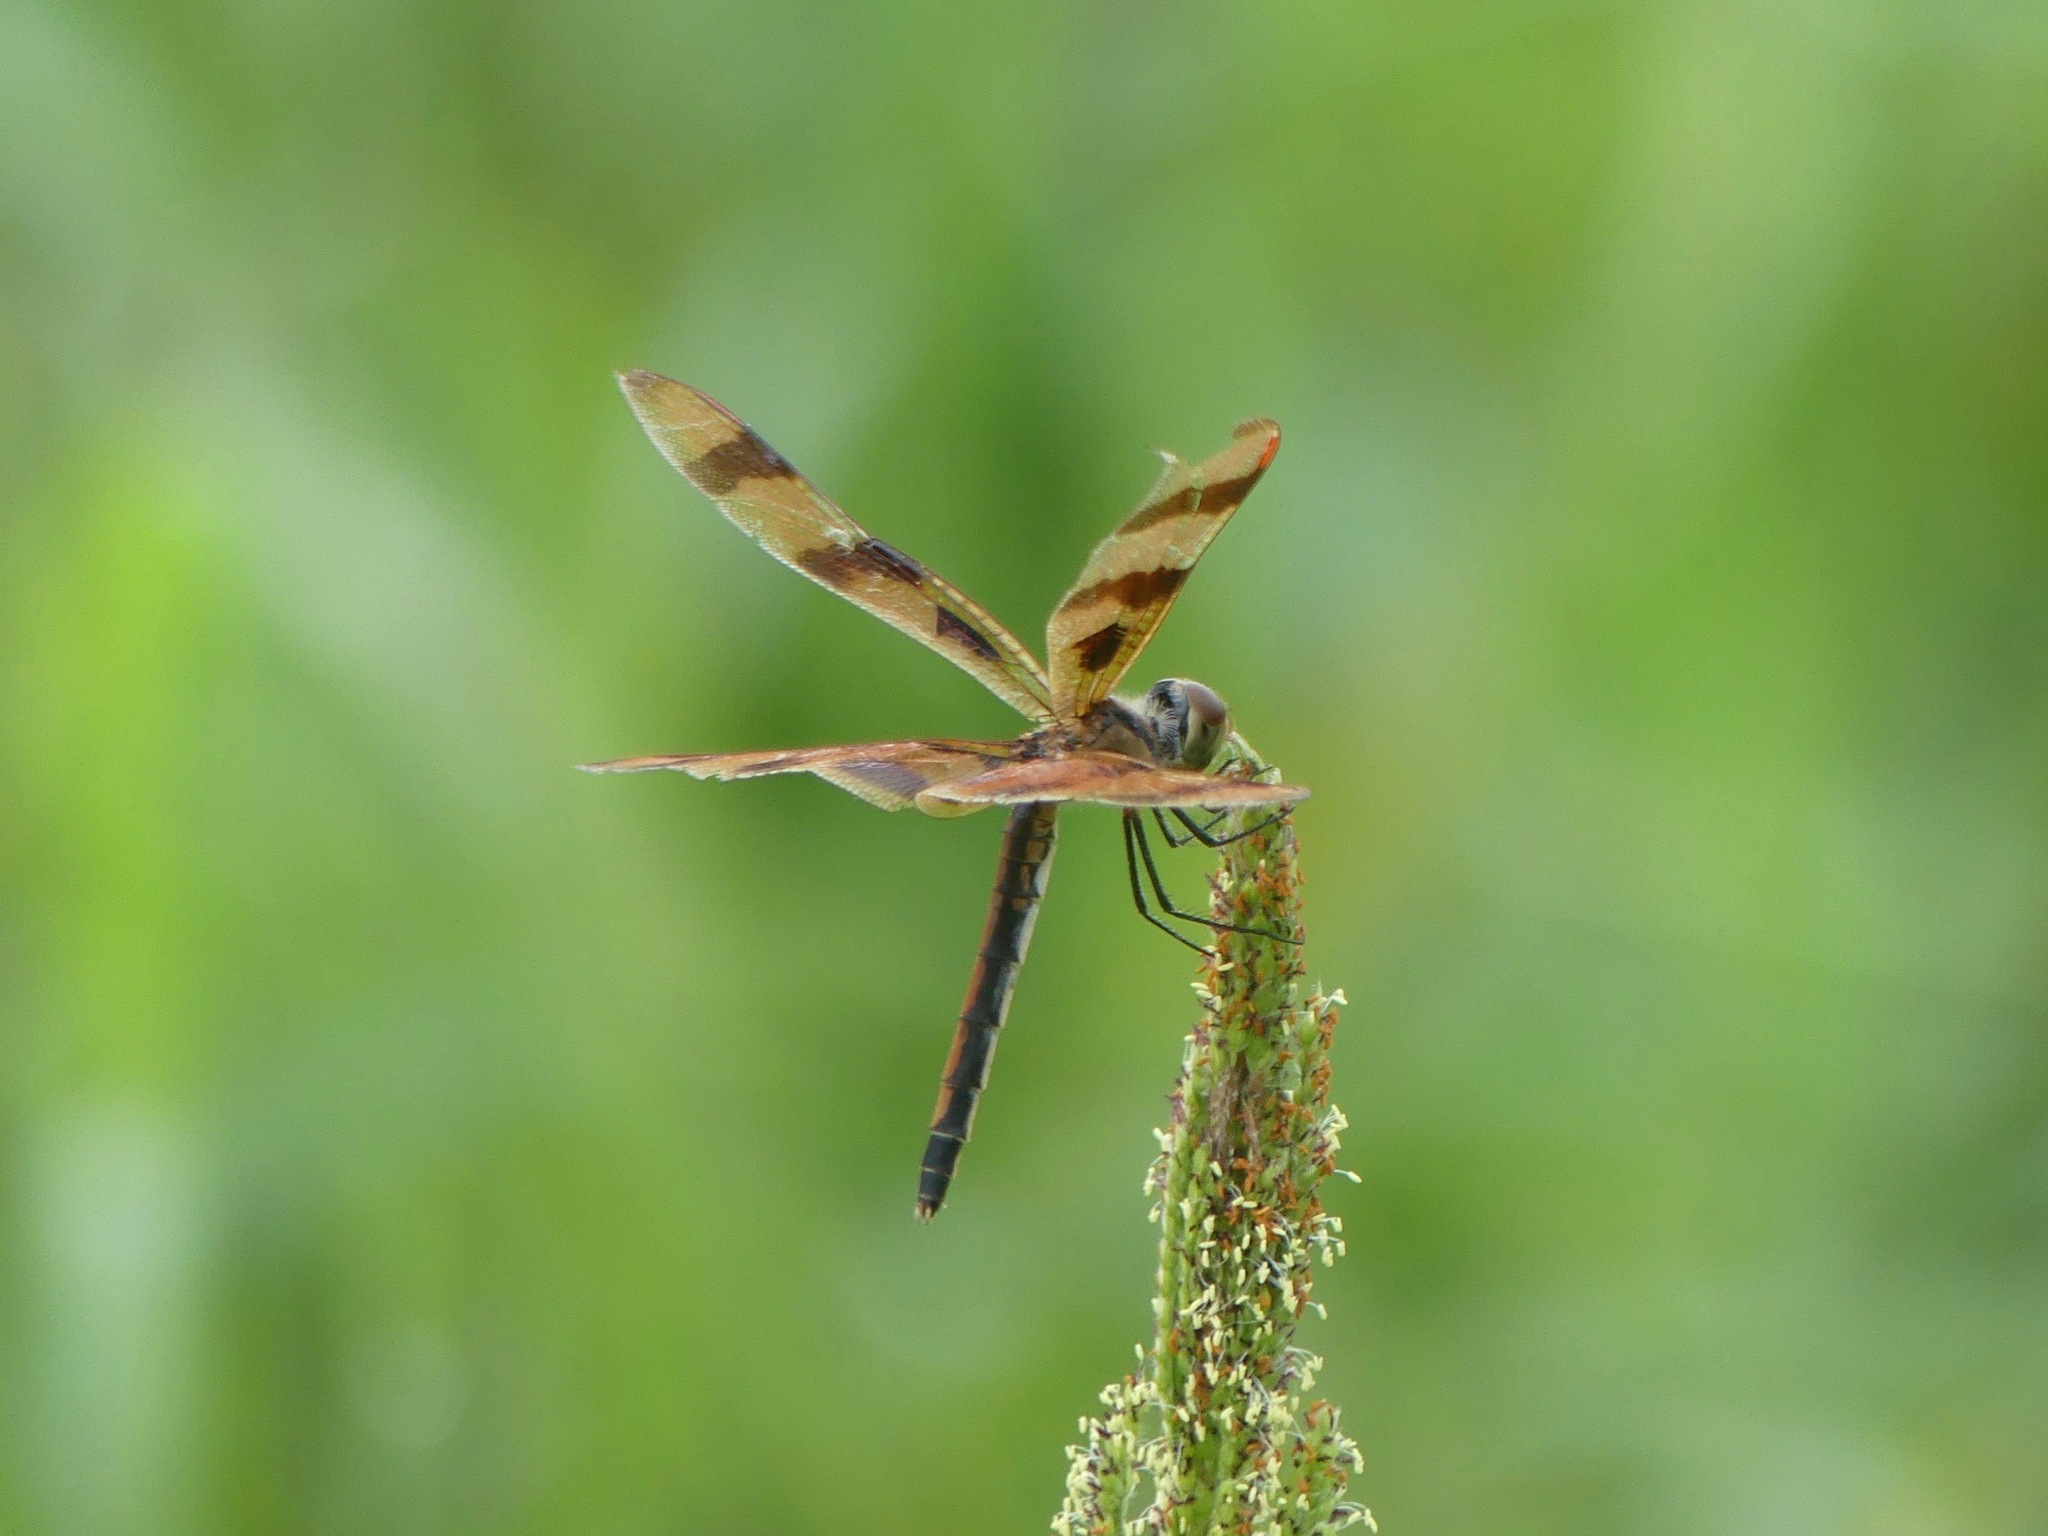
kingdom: Animalia
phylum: Arthropoda
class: Insecta
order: Odonata
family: Libellulidae
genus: Celithemis
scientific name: Celithemis eponina
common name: Halloween pennant
